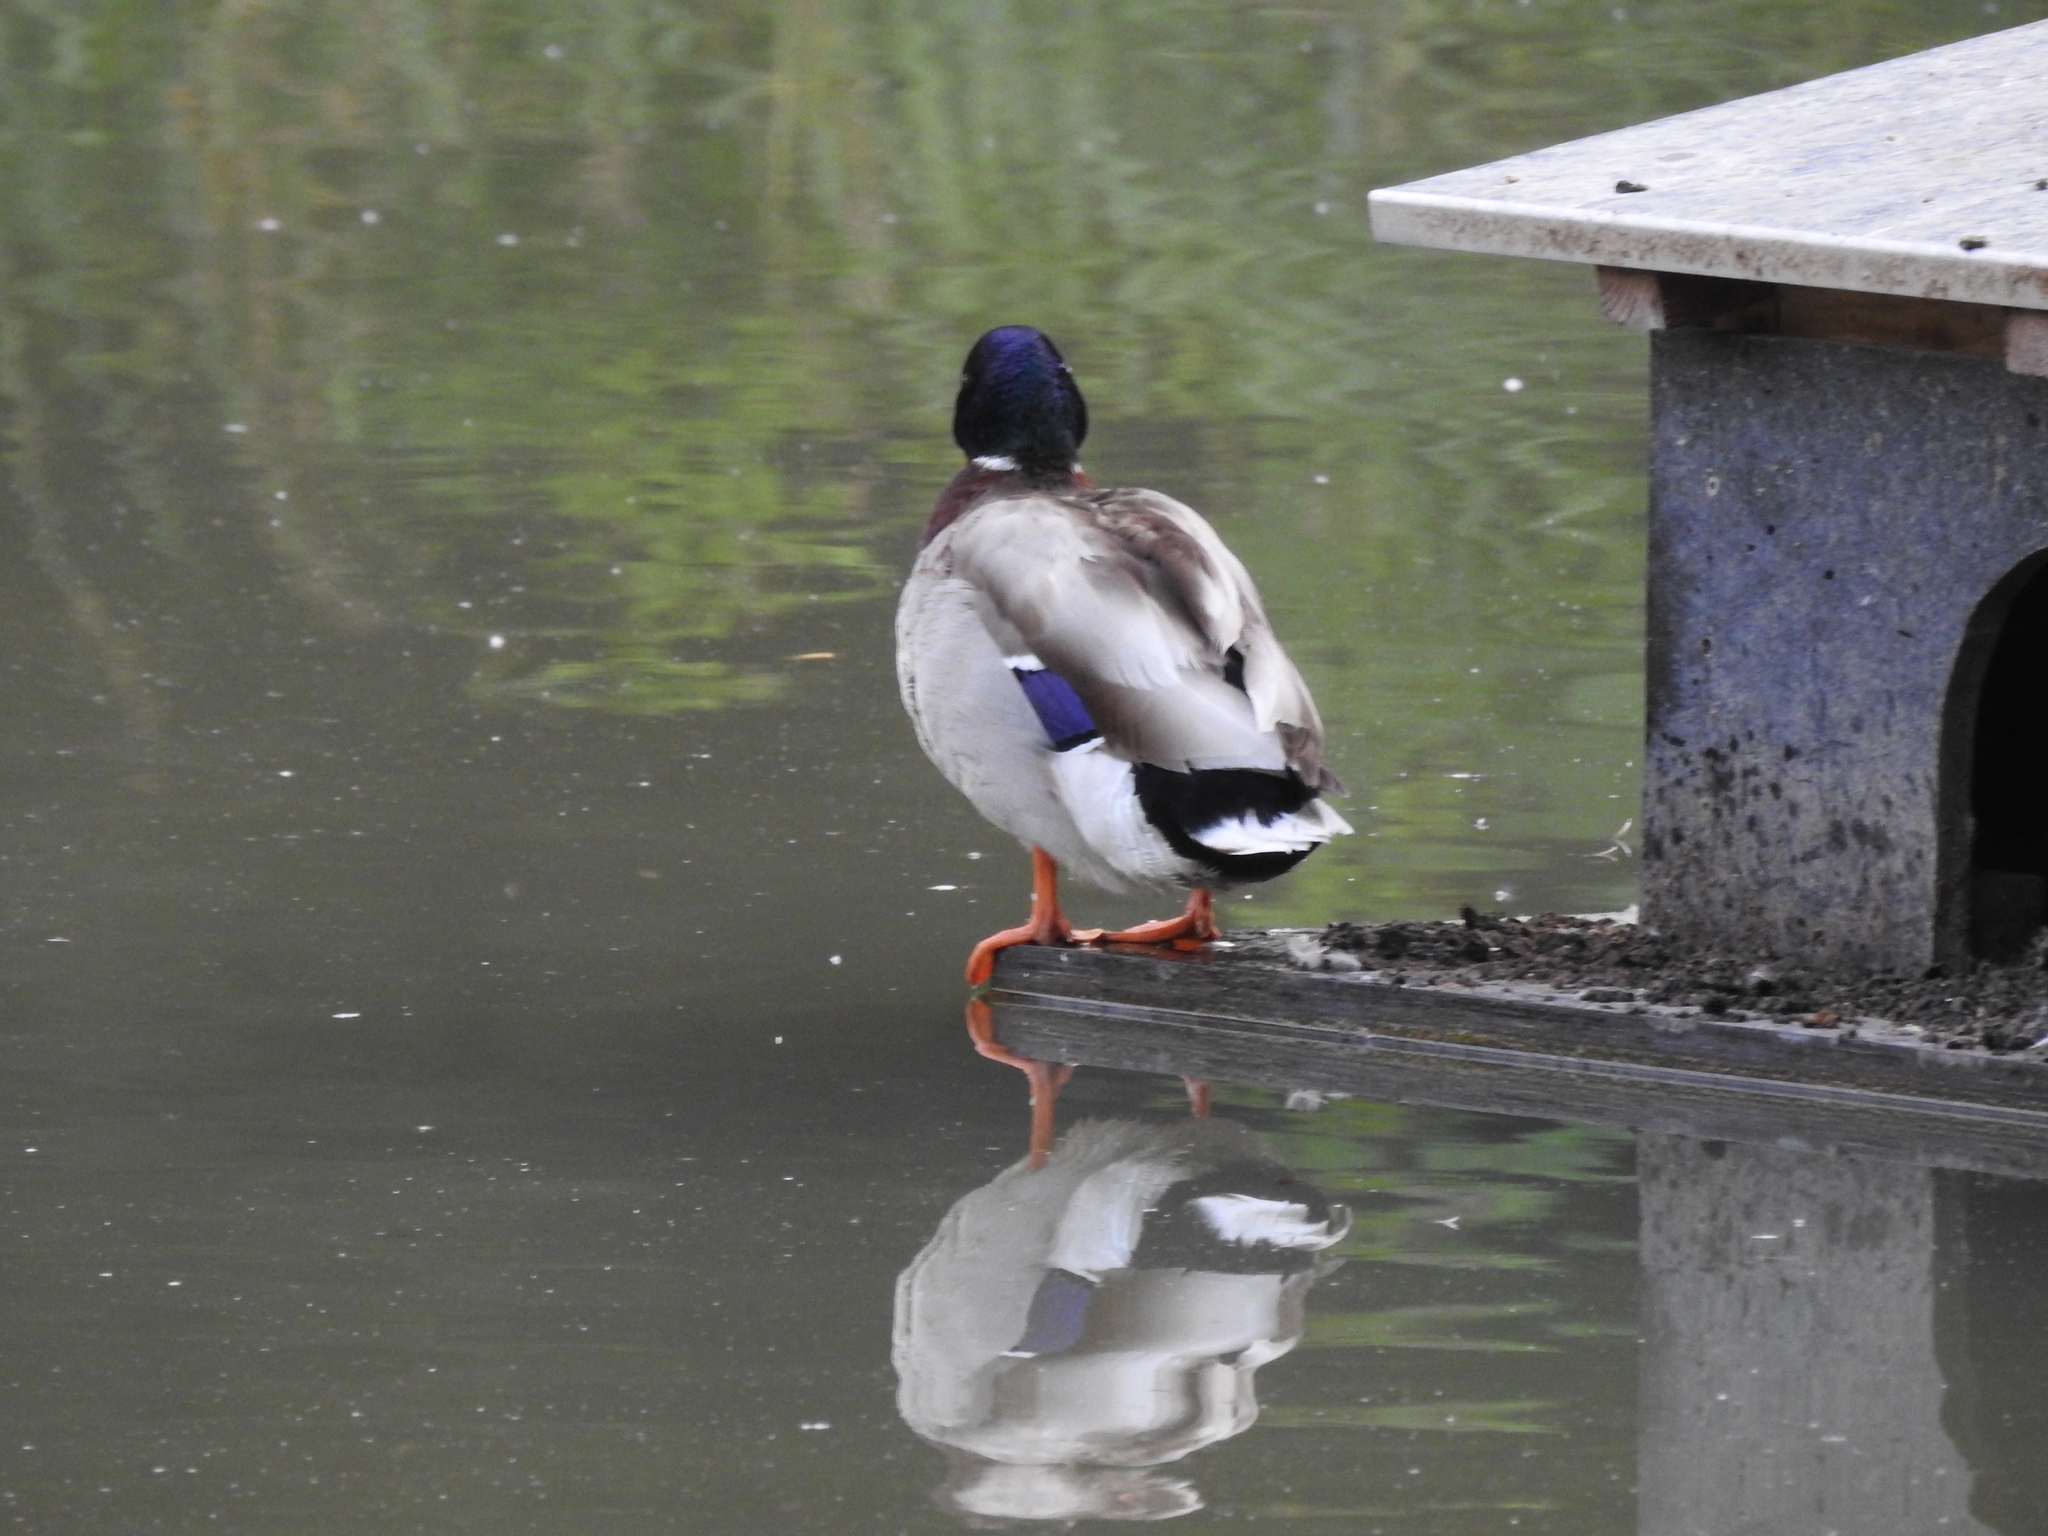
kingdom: Animalia
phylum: Chordata
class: Aves
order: Anseriformes
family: Anatidae
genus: Anas
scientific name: Anas platyrhynchos
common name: Mallard
